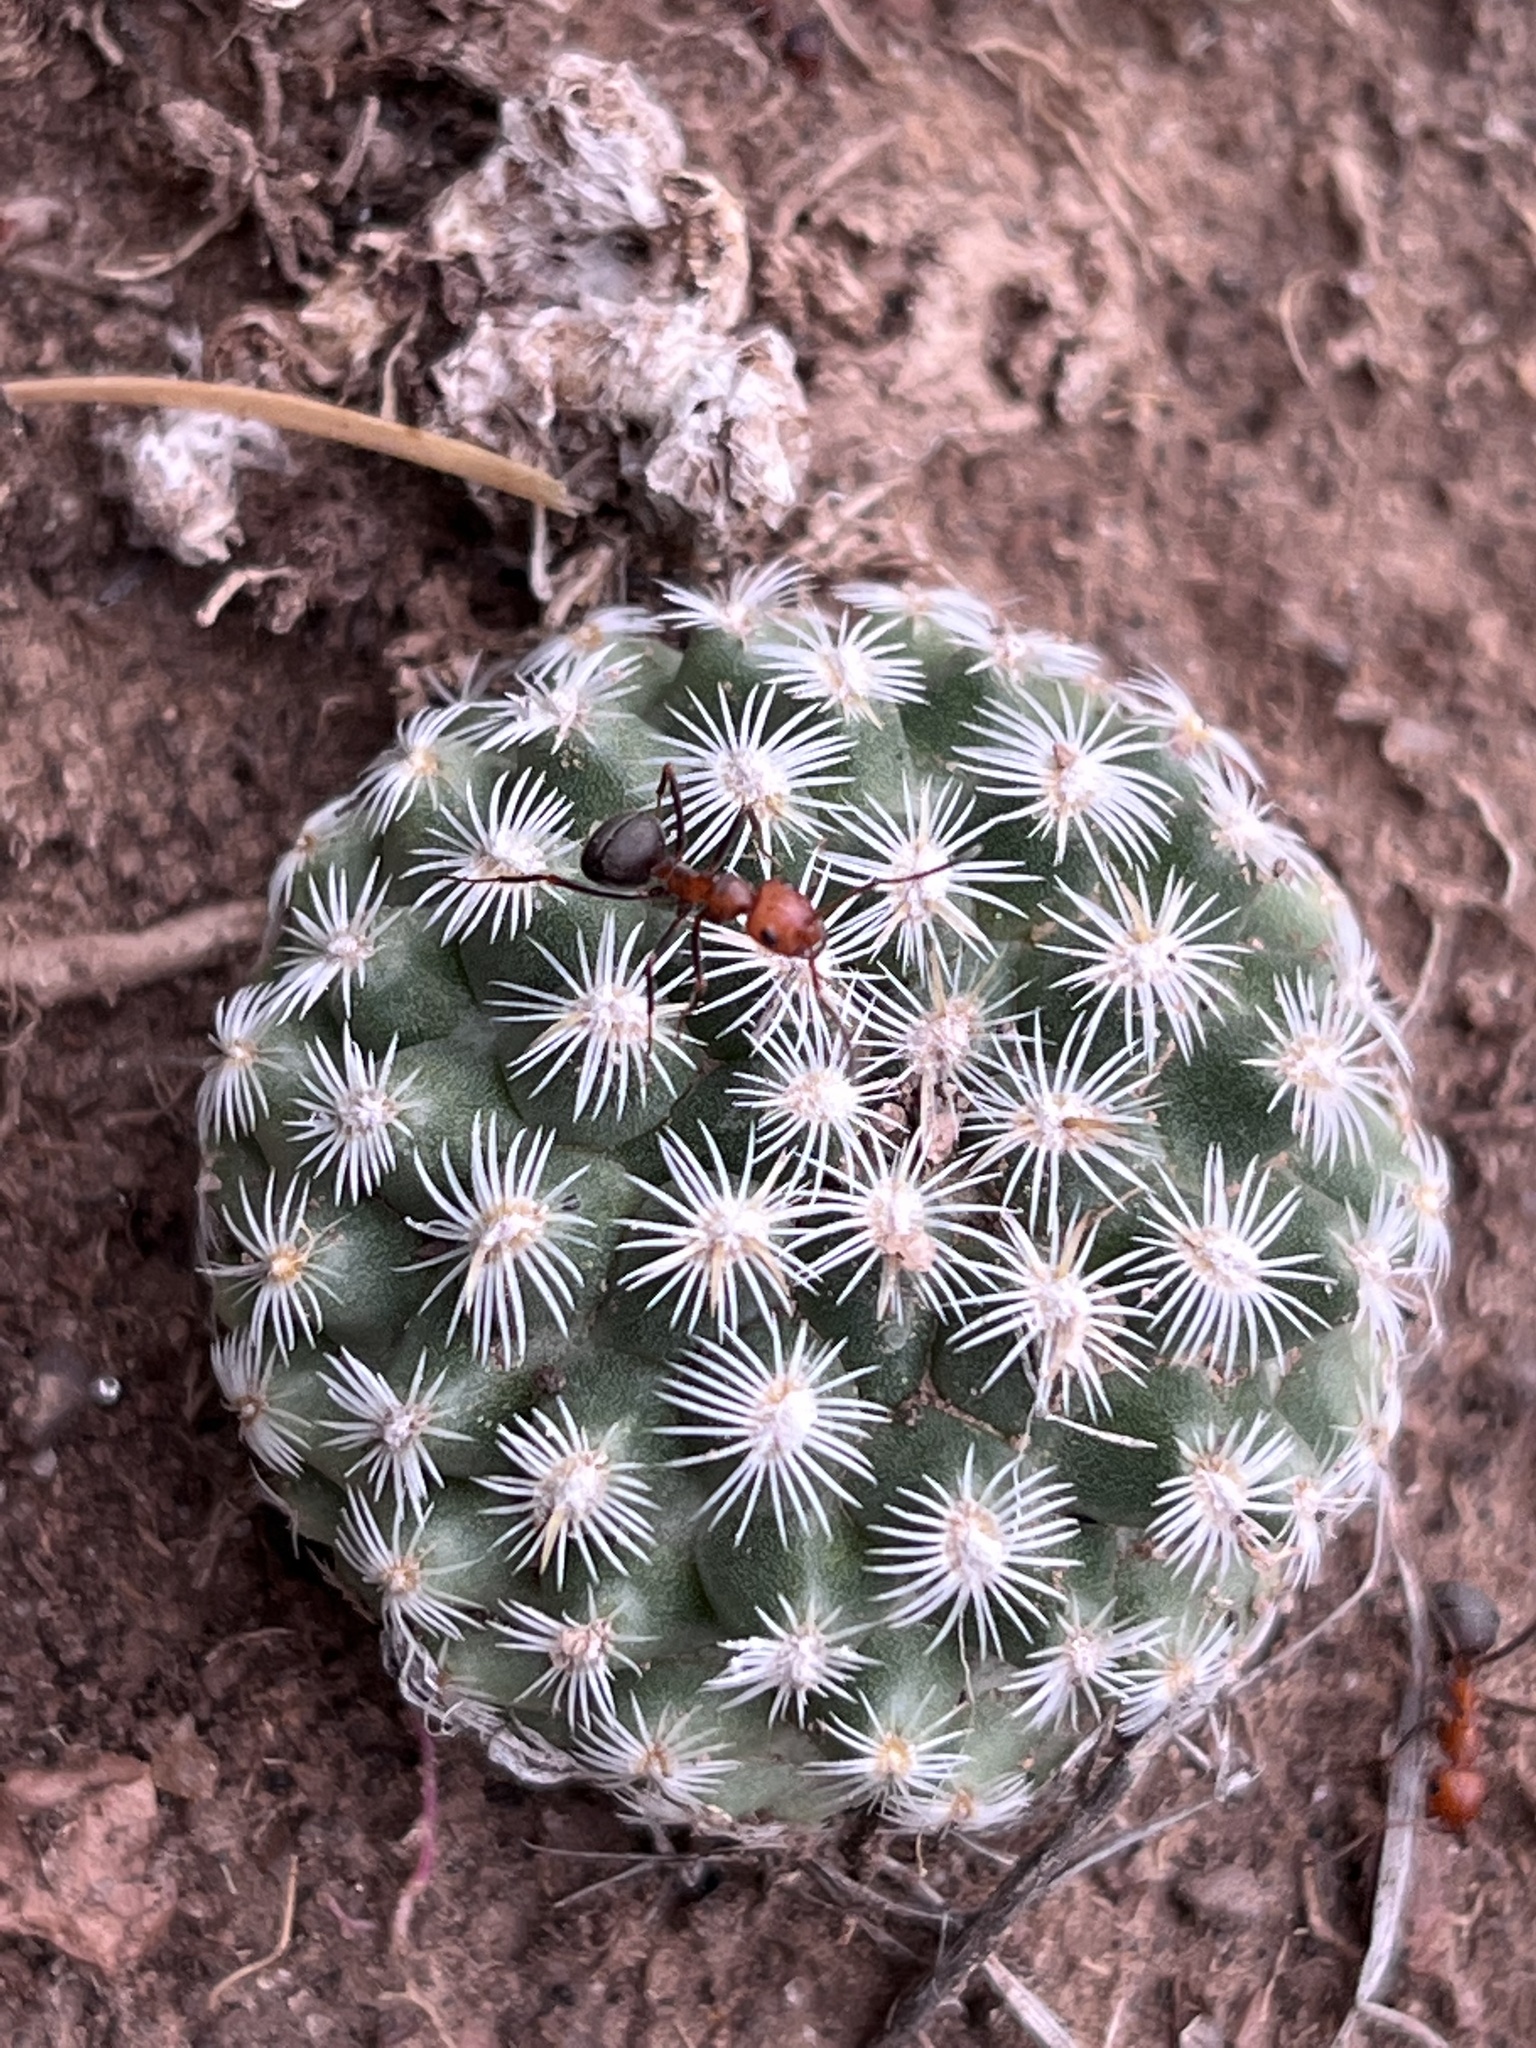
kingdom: Plantae
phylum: Tracheophyta
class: Magnoliopsida
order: Caryophyllales
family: Cactaceae
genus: Pediocactus
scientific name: Pediocactus simpsonii
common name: Simpson's hedgehog cactus
